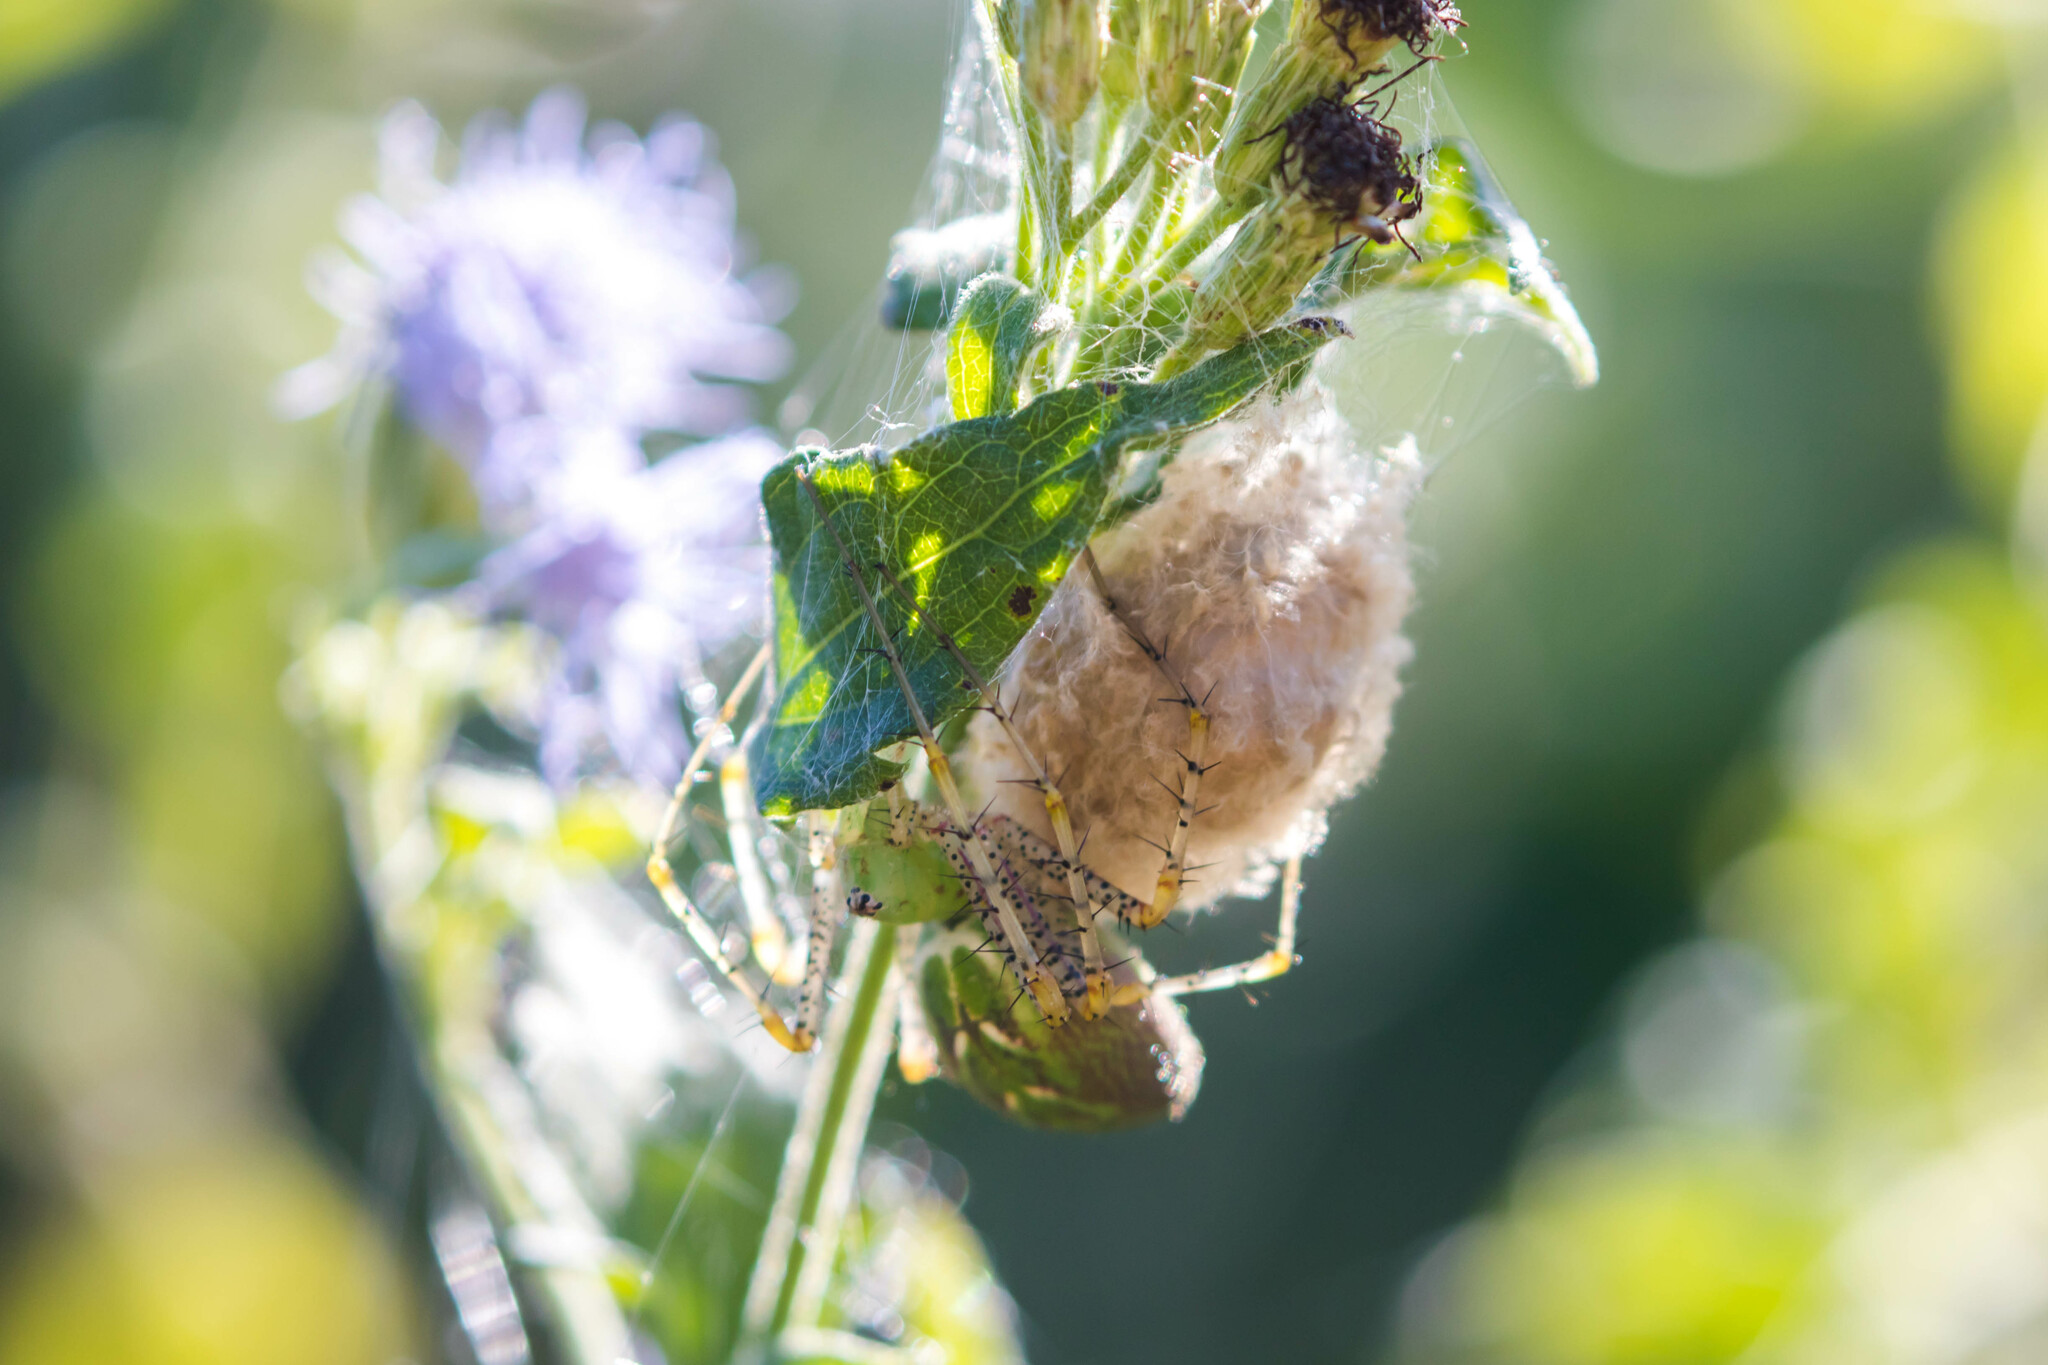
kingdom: Animalia
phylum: Arthropoda
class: Arachnida
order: Araneae
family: Oxyopidae
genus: Peucetia
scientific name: Peucetia viridans
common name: Lynx spiders
